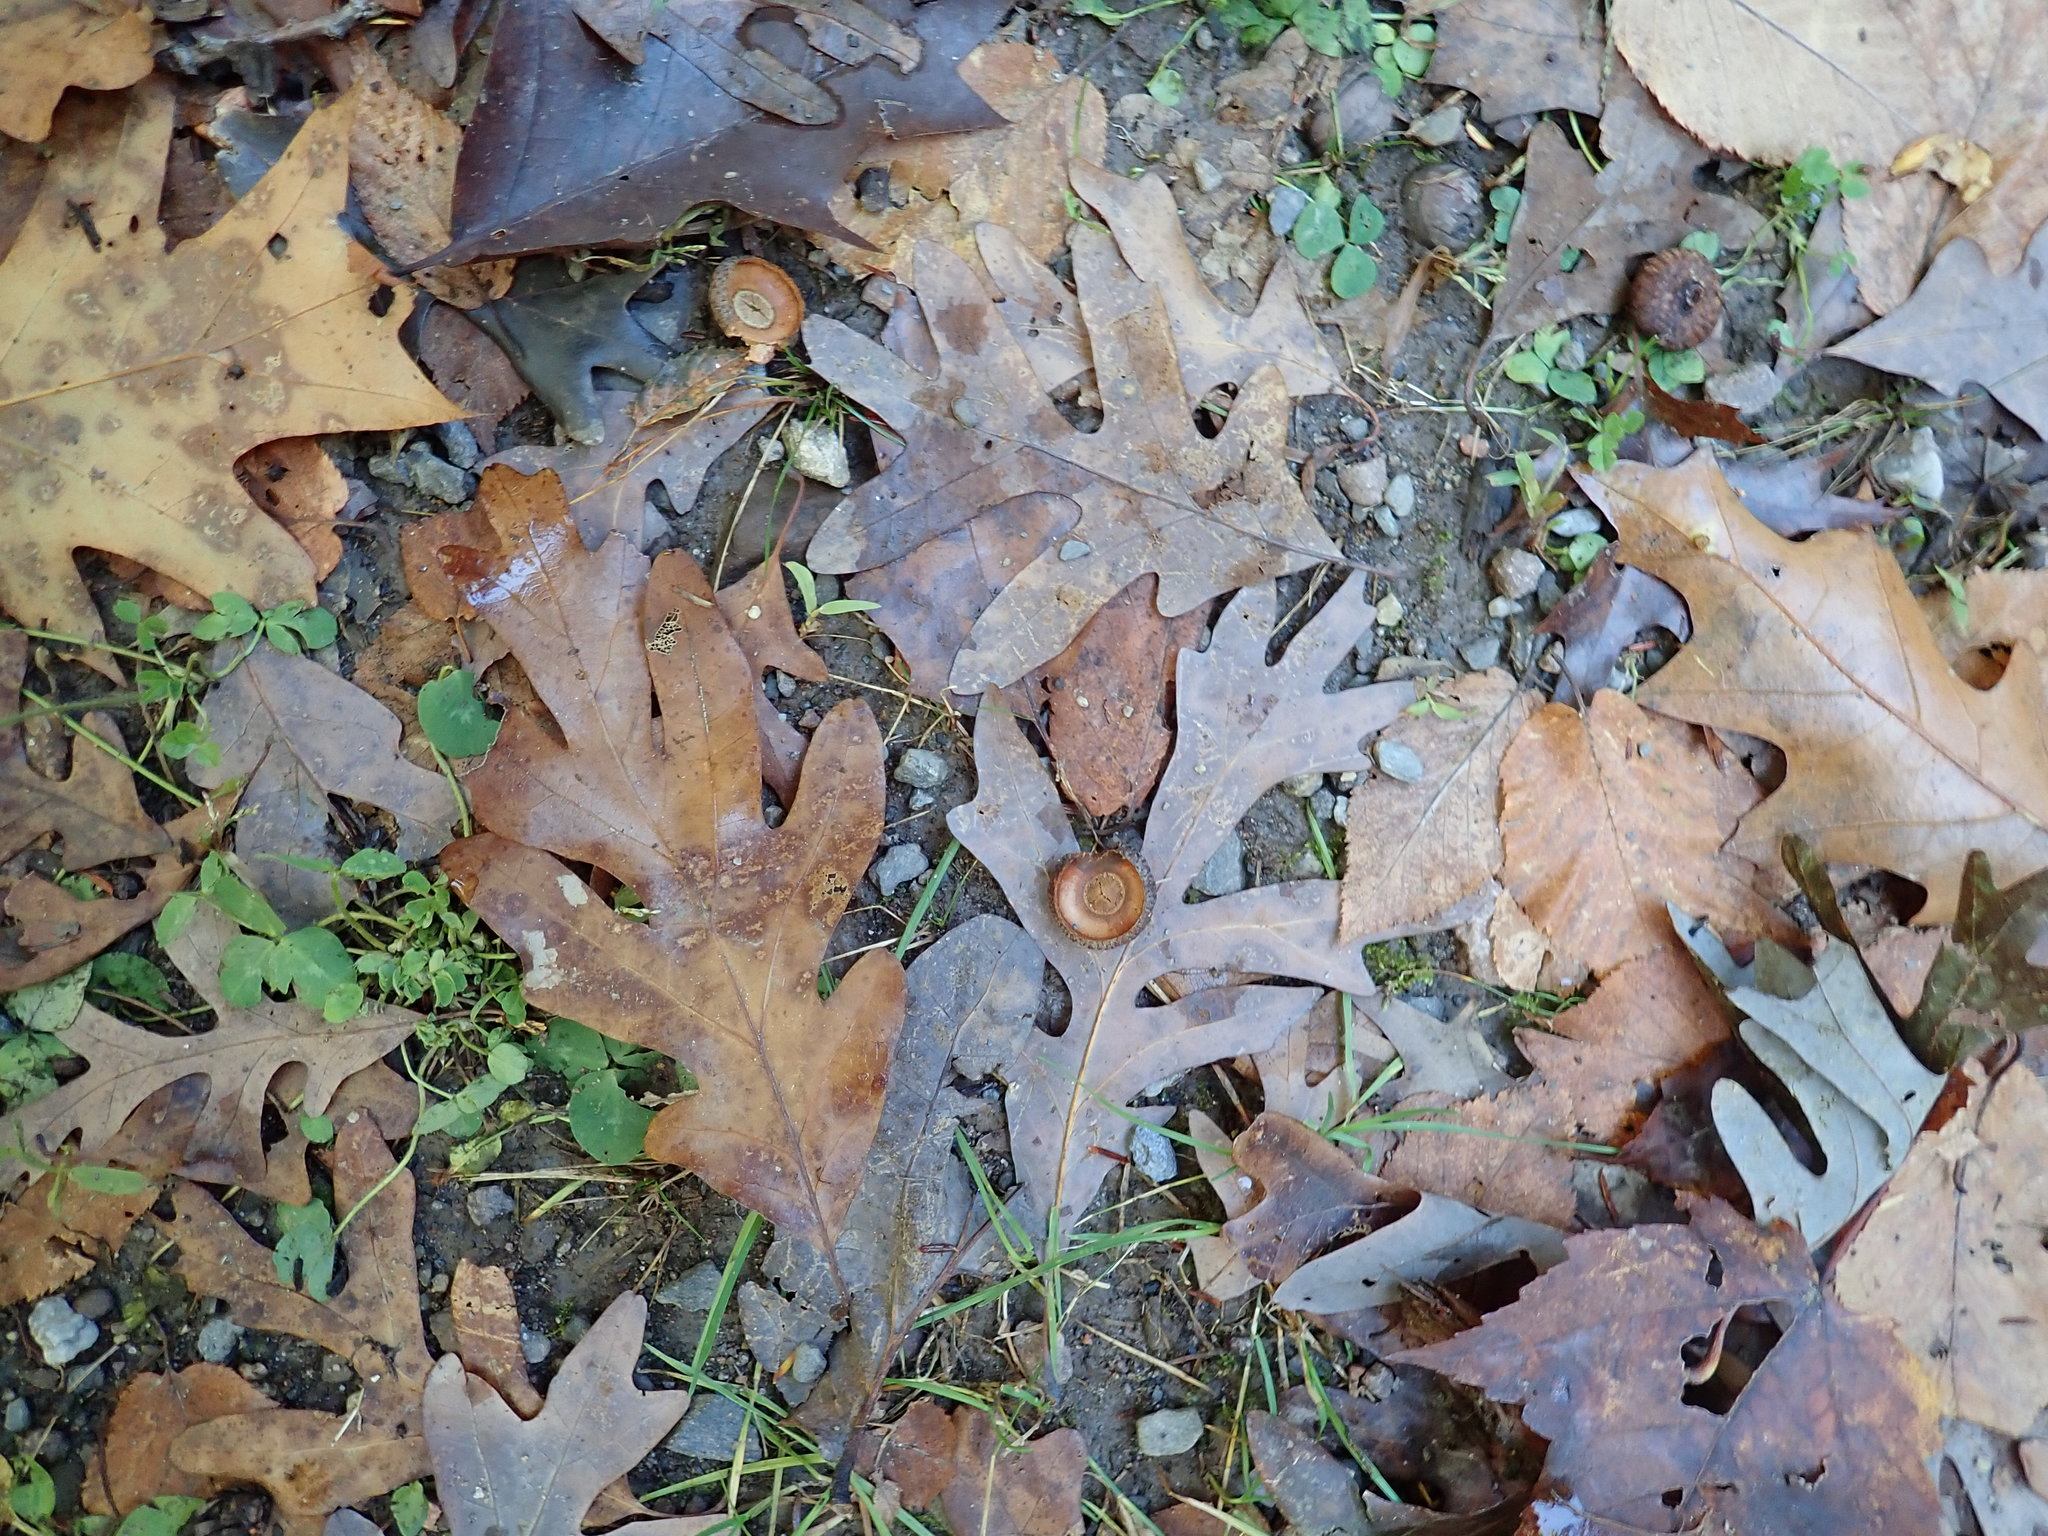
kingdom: Plantae
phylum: Tracheophyta
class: Magnoliopsida
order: Fagales
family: Fagaceae
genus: Quercus
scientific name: Quercus alba
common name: White oak
